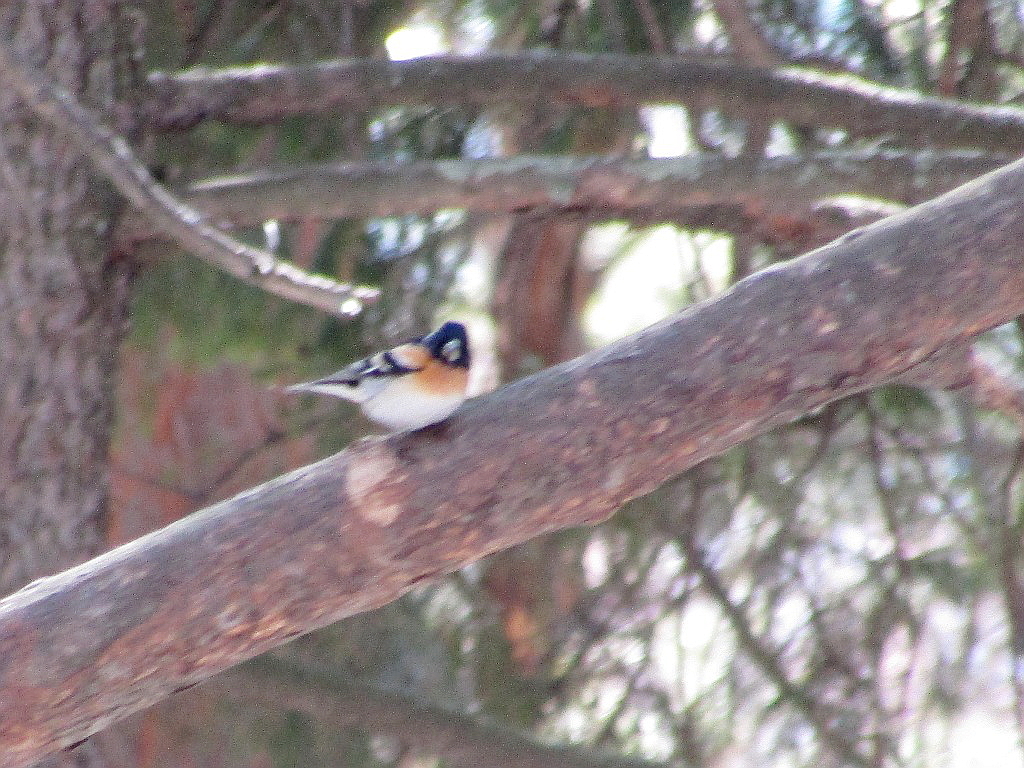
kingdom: Animalia
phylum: Chordata
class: Aves
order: Passeriformes
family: Fringillidae
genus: Fringilla
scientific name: Fringilla montifringilla
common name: Brambling
